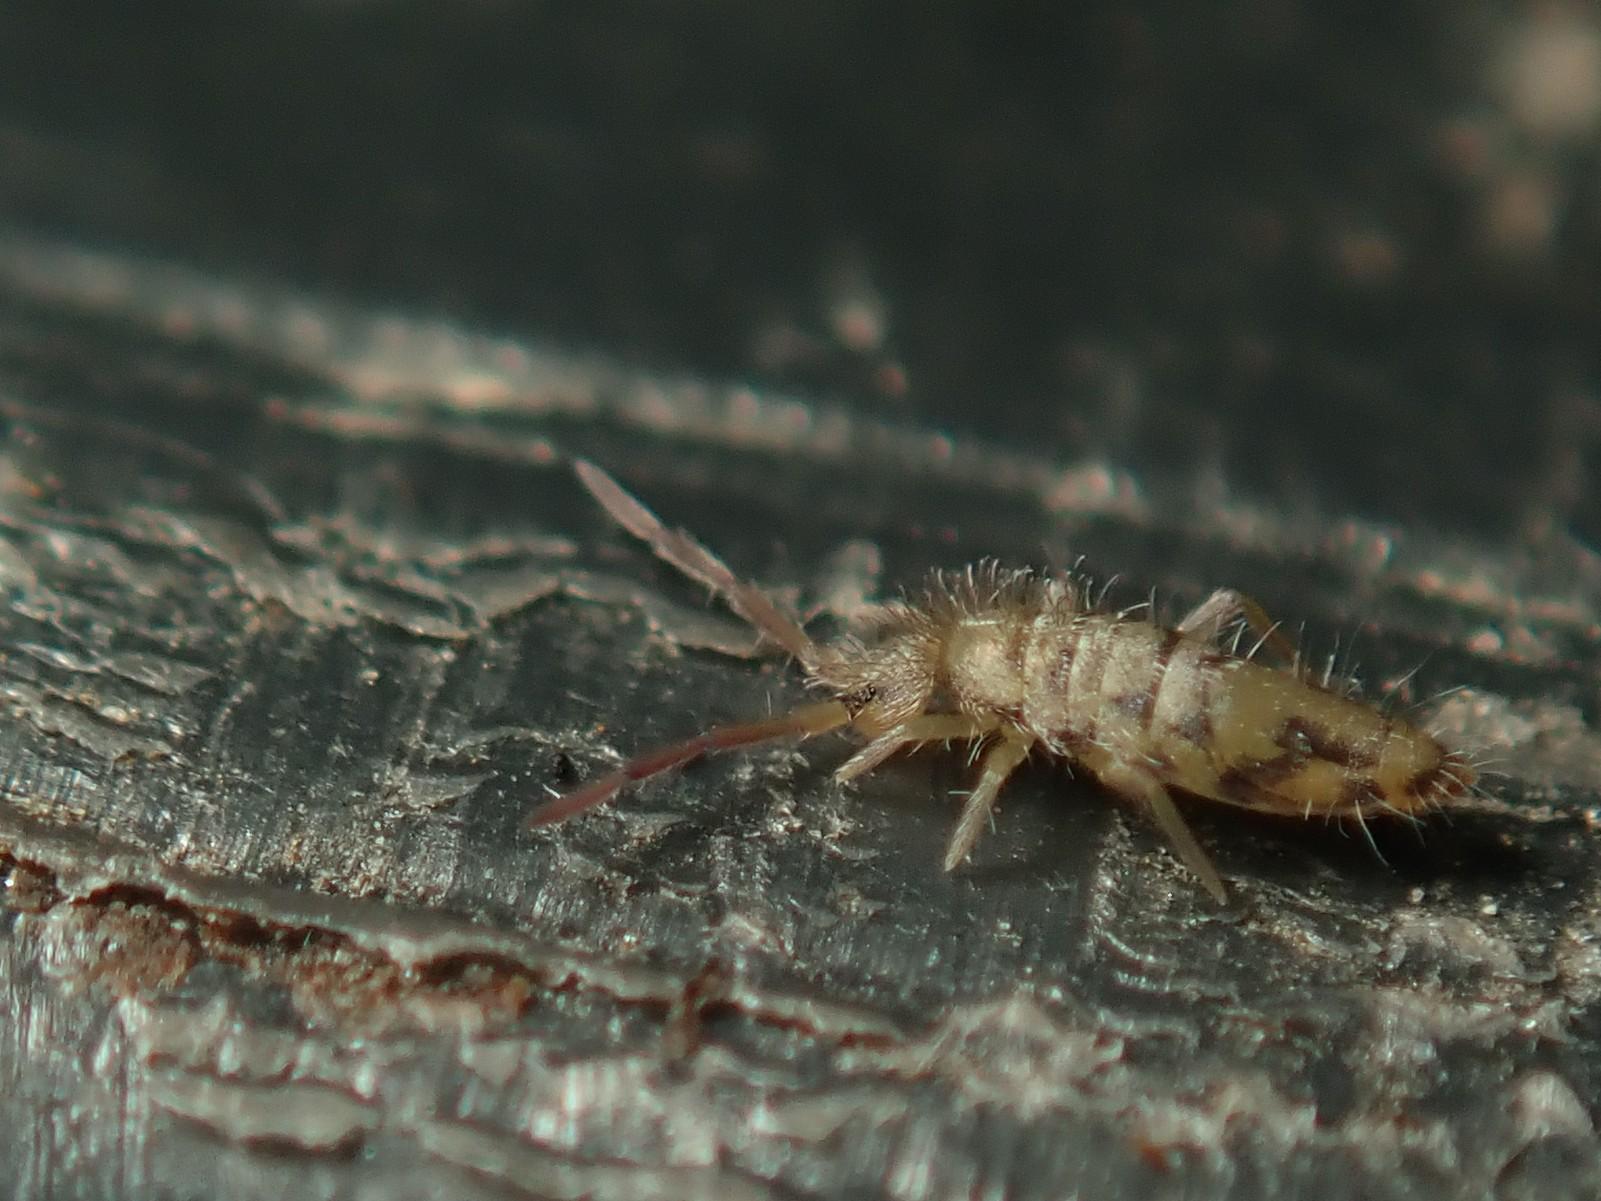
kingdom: Animalia
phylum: Arthropoda
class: Collembola
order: Entomobryomorpha
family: Entomobryidae
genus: Entomobrya
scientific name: Entomobrya nivalis
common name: Cosmopolitan springtail
